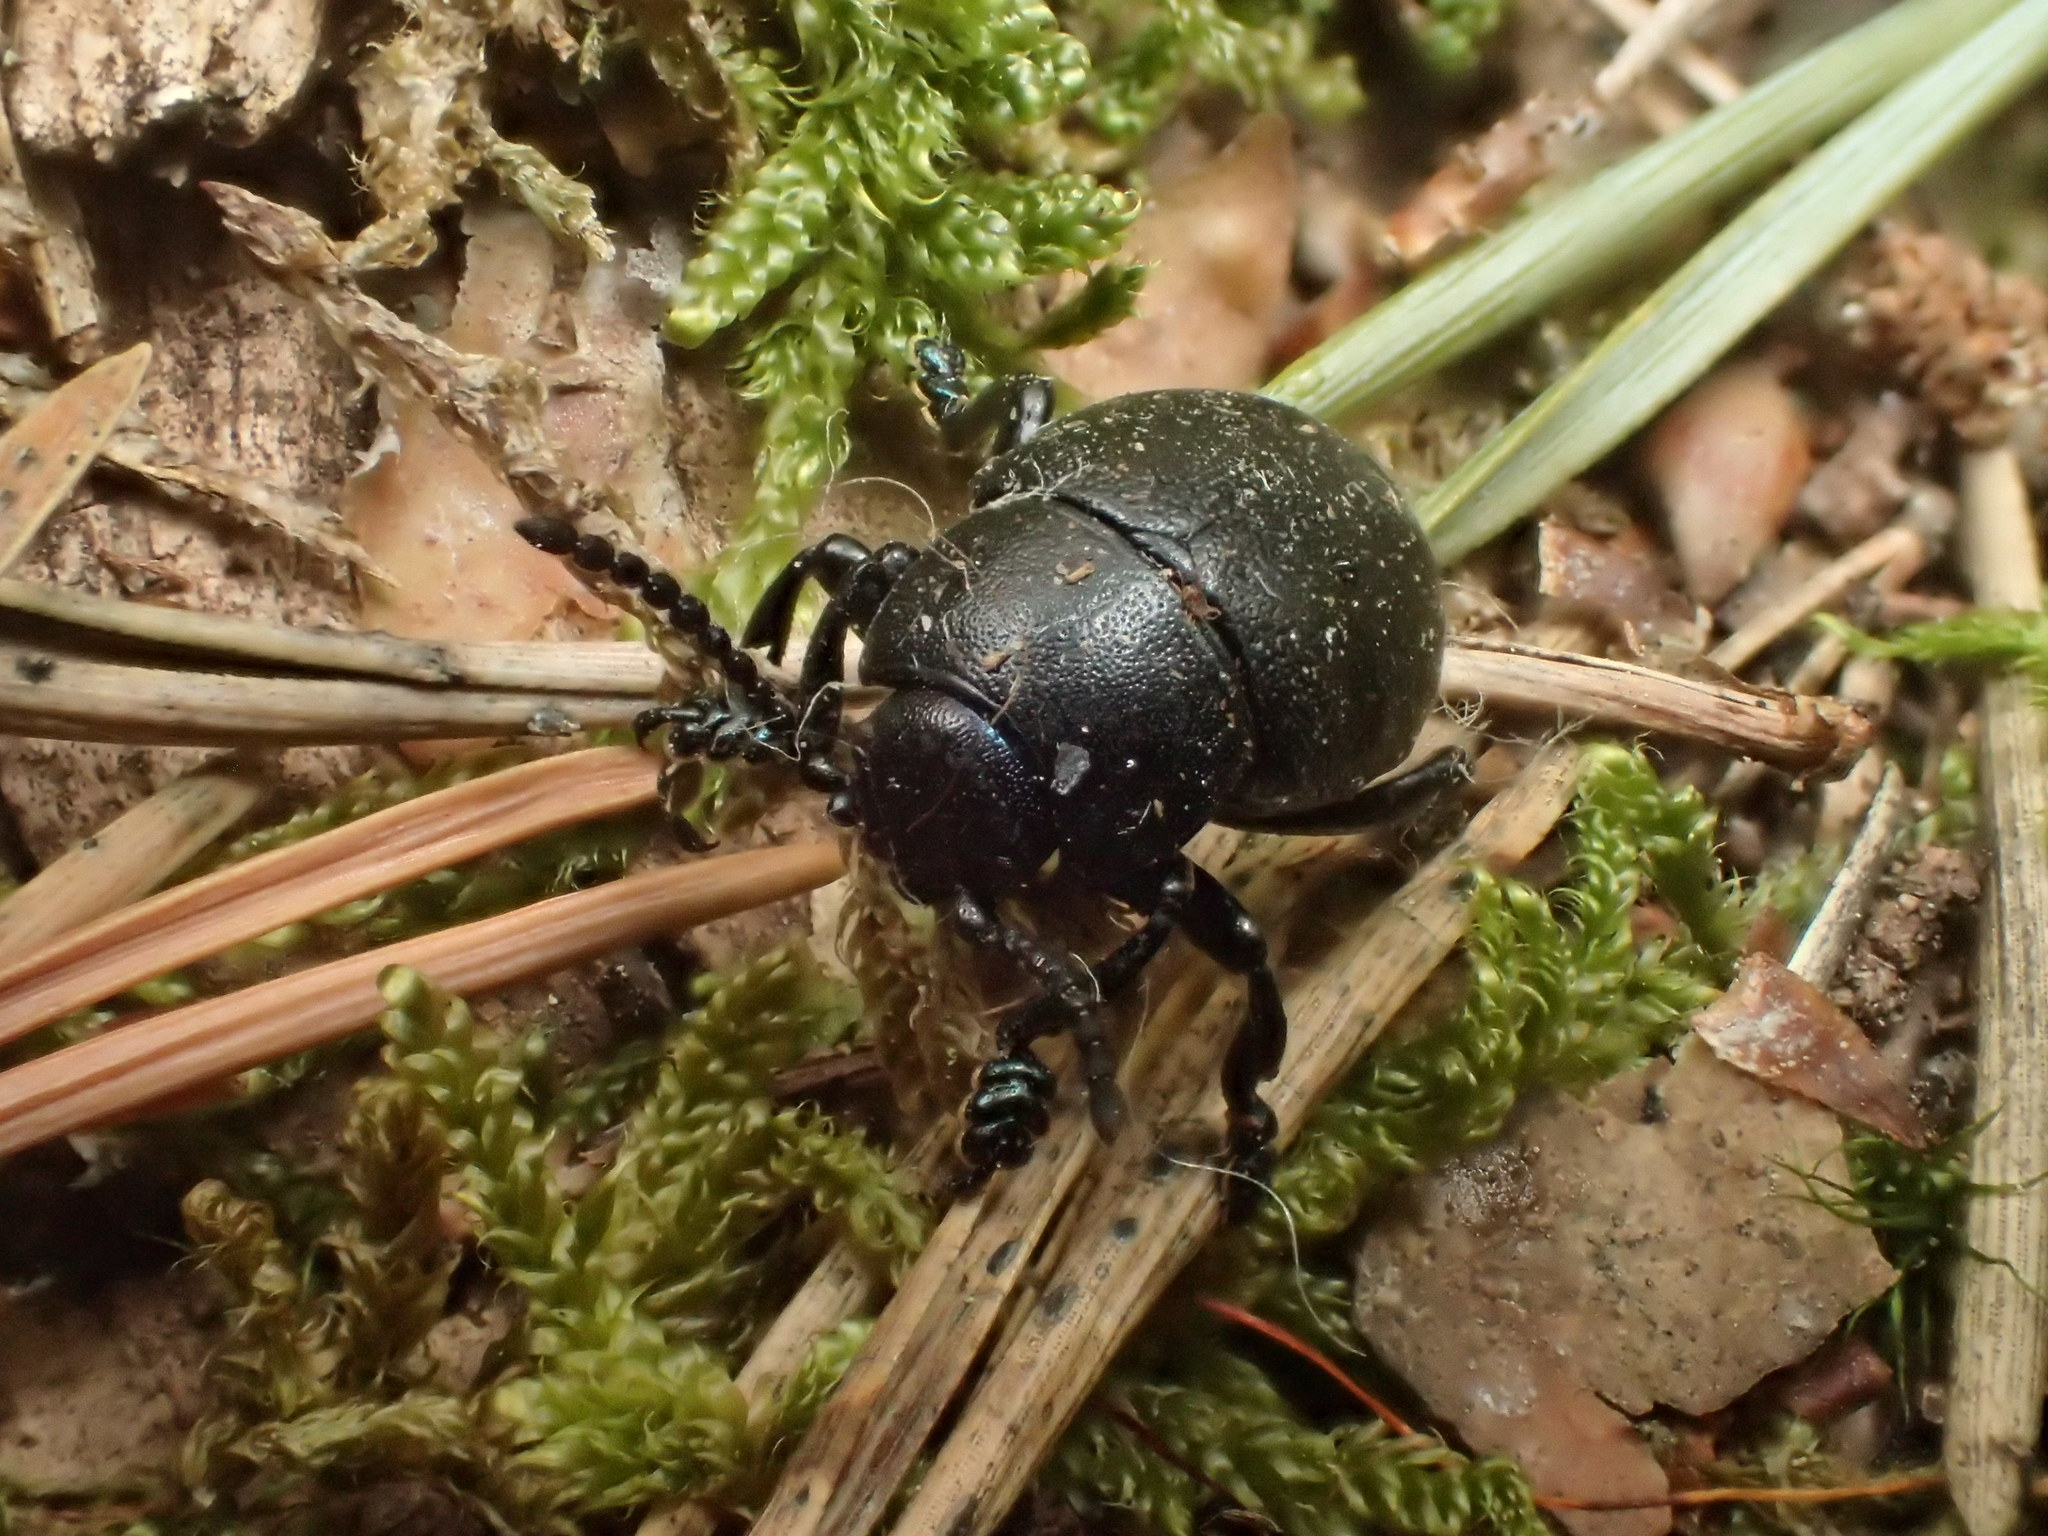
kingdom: Animalia
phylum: Arthropoda
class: Insecta
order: Coleoptera
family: Chrysomelidae
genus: Timarcha
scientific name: Timarcha goettingensis
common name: Small bloody-nosed beetle
